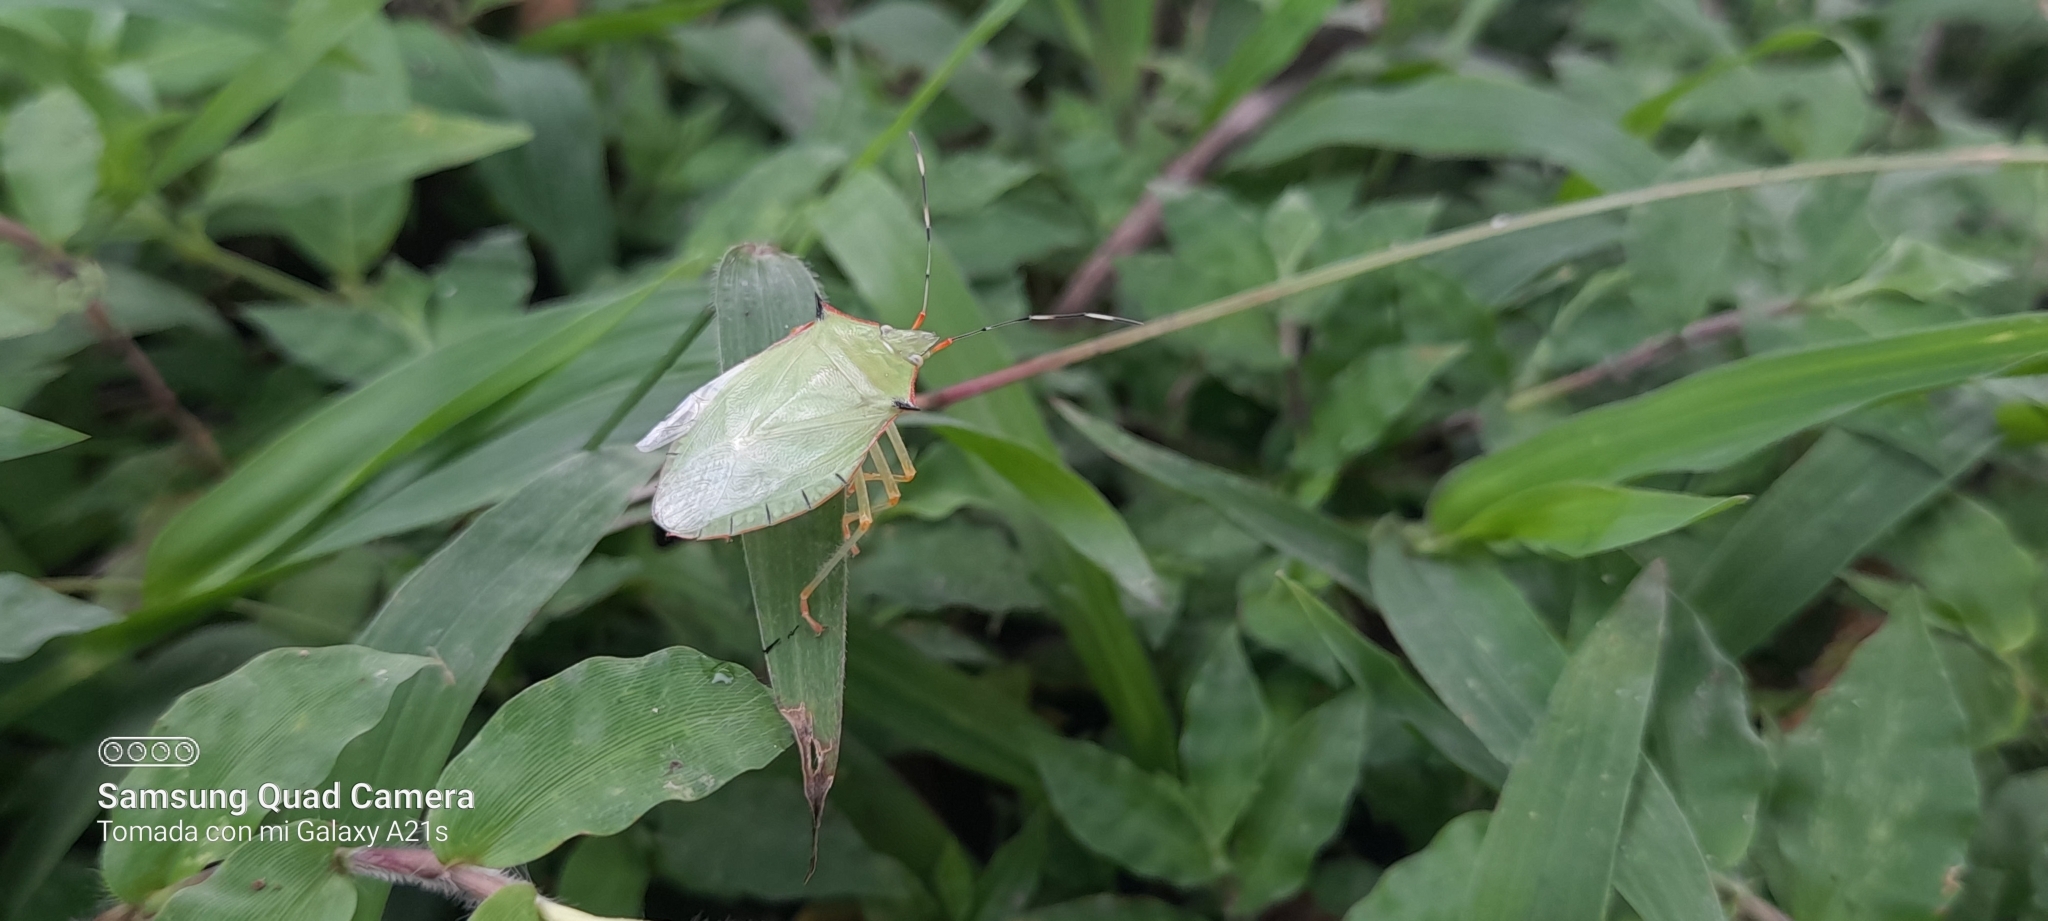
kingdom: Animalia
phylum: Arthropoda
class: Insecta
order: Hemiptera
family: Pentatomidae
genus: Chlorocoris
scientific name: Chlorocoris distinctus
